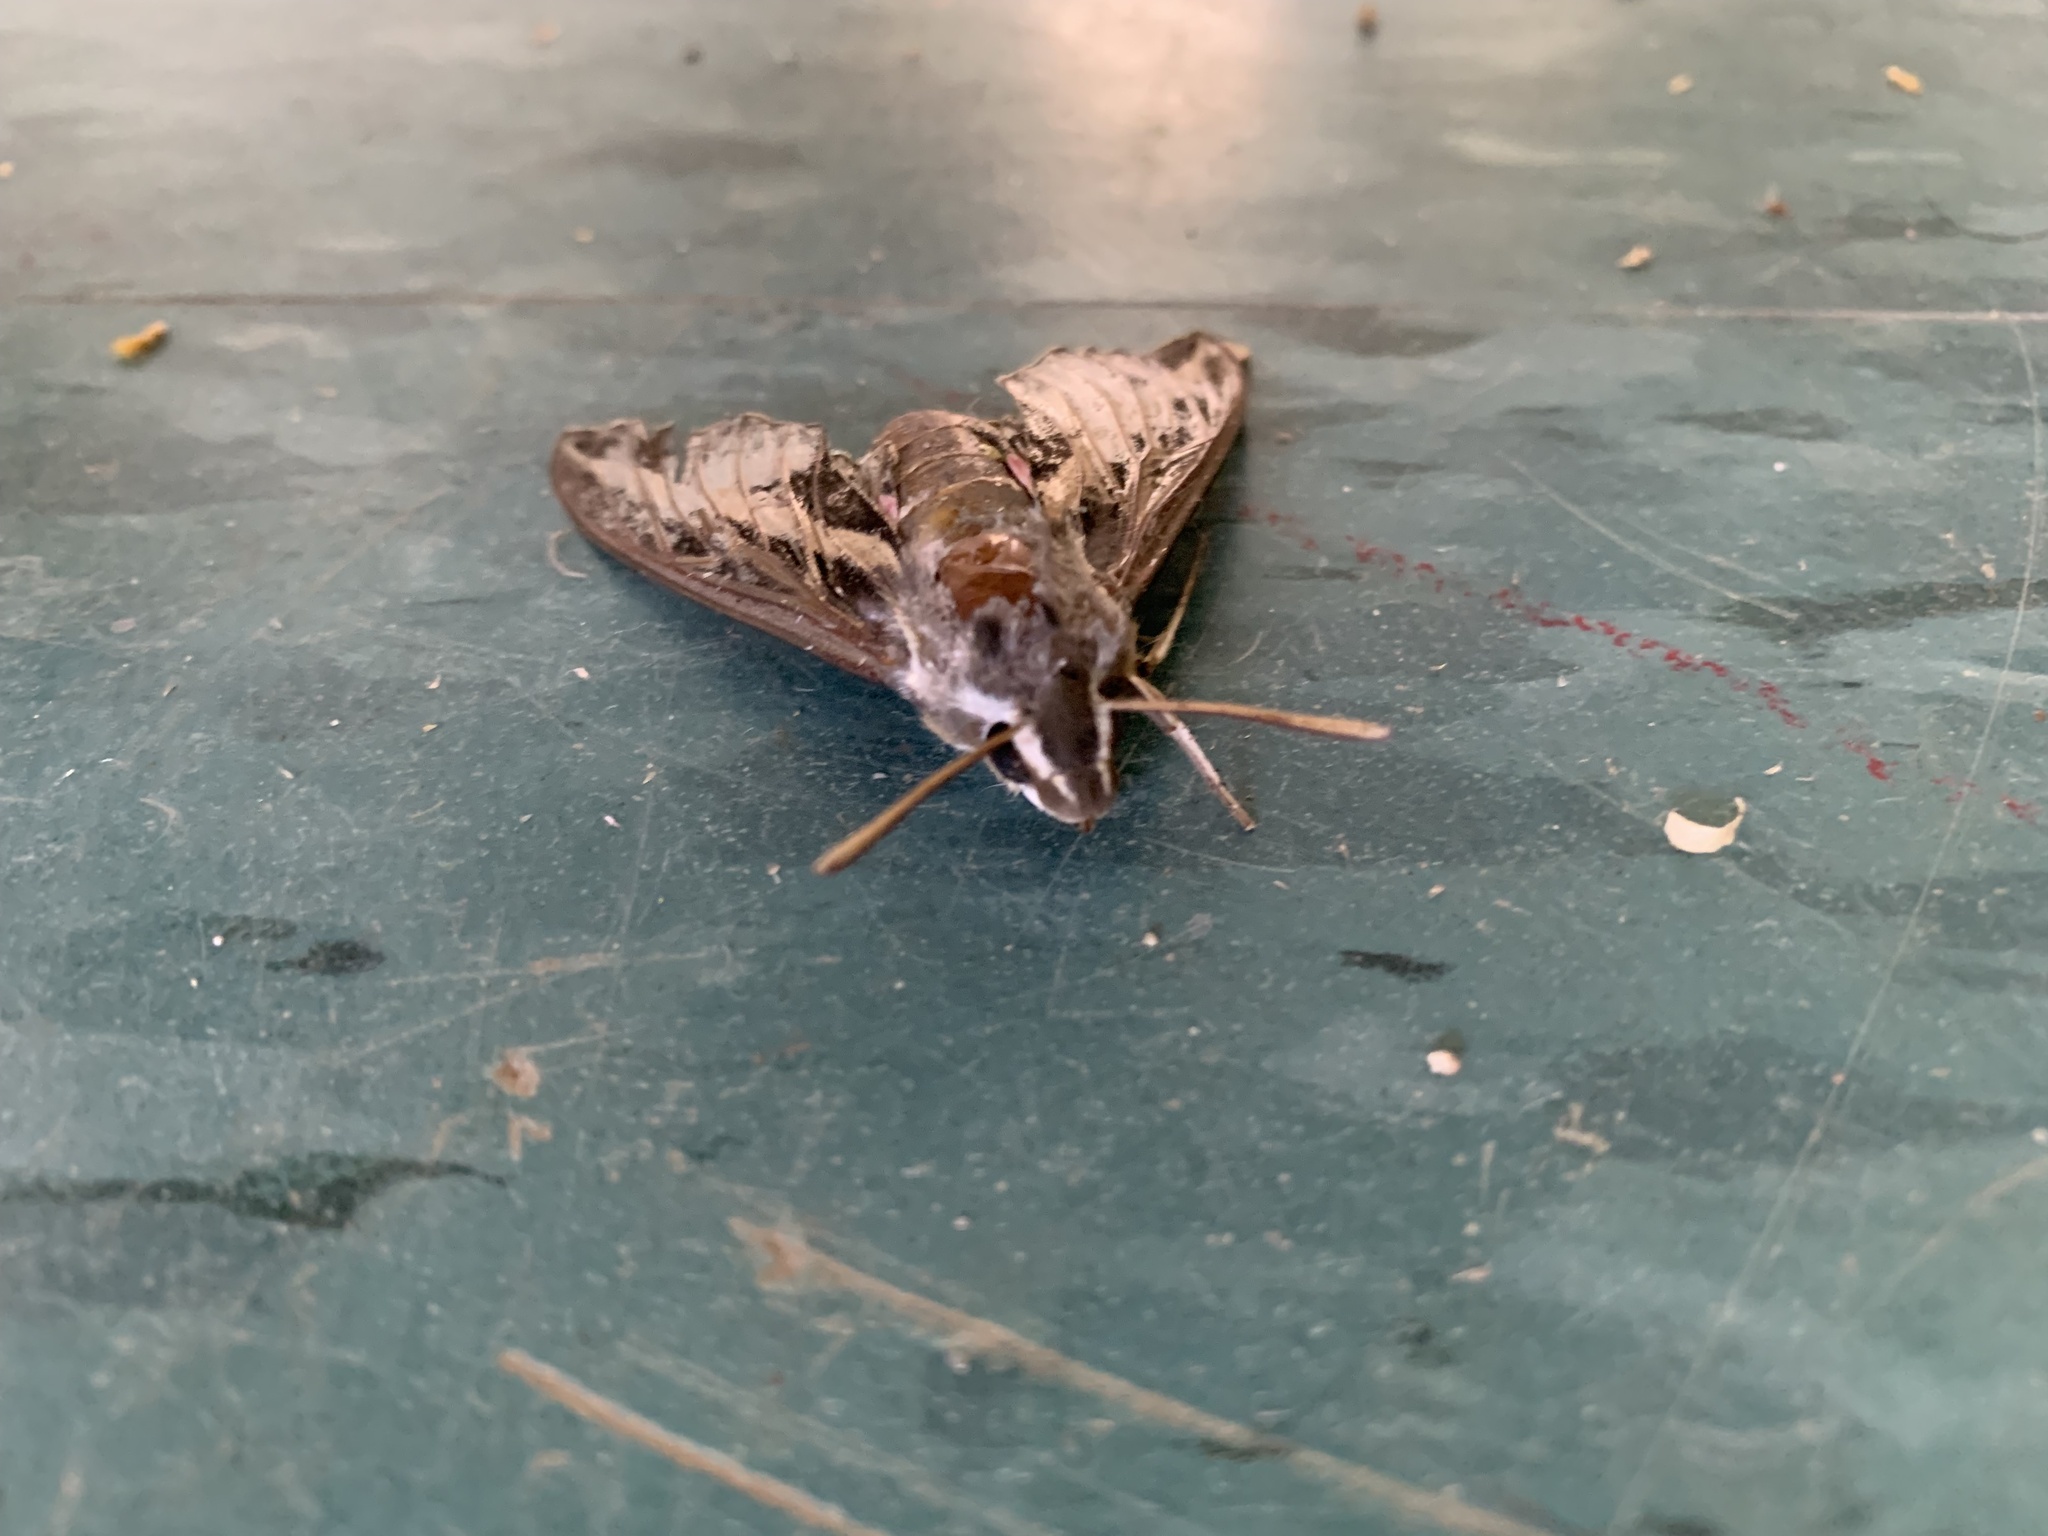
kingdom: Animalia
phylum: Arthropoda
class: Insecta
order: Lepidoptera
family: Sphingidae
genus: Hyles
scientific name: Hyles lineata
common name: White-lined sphinx
